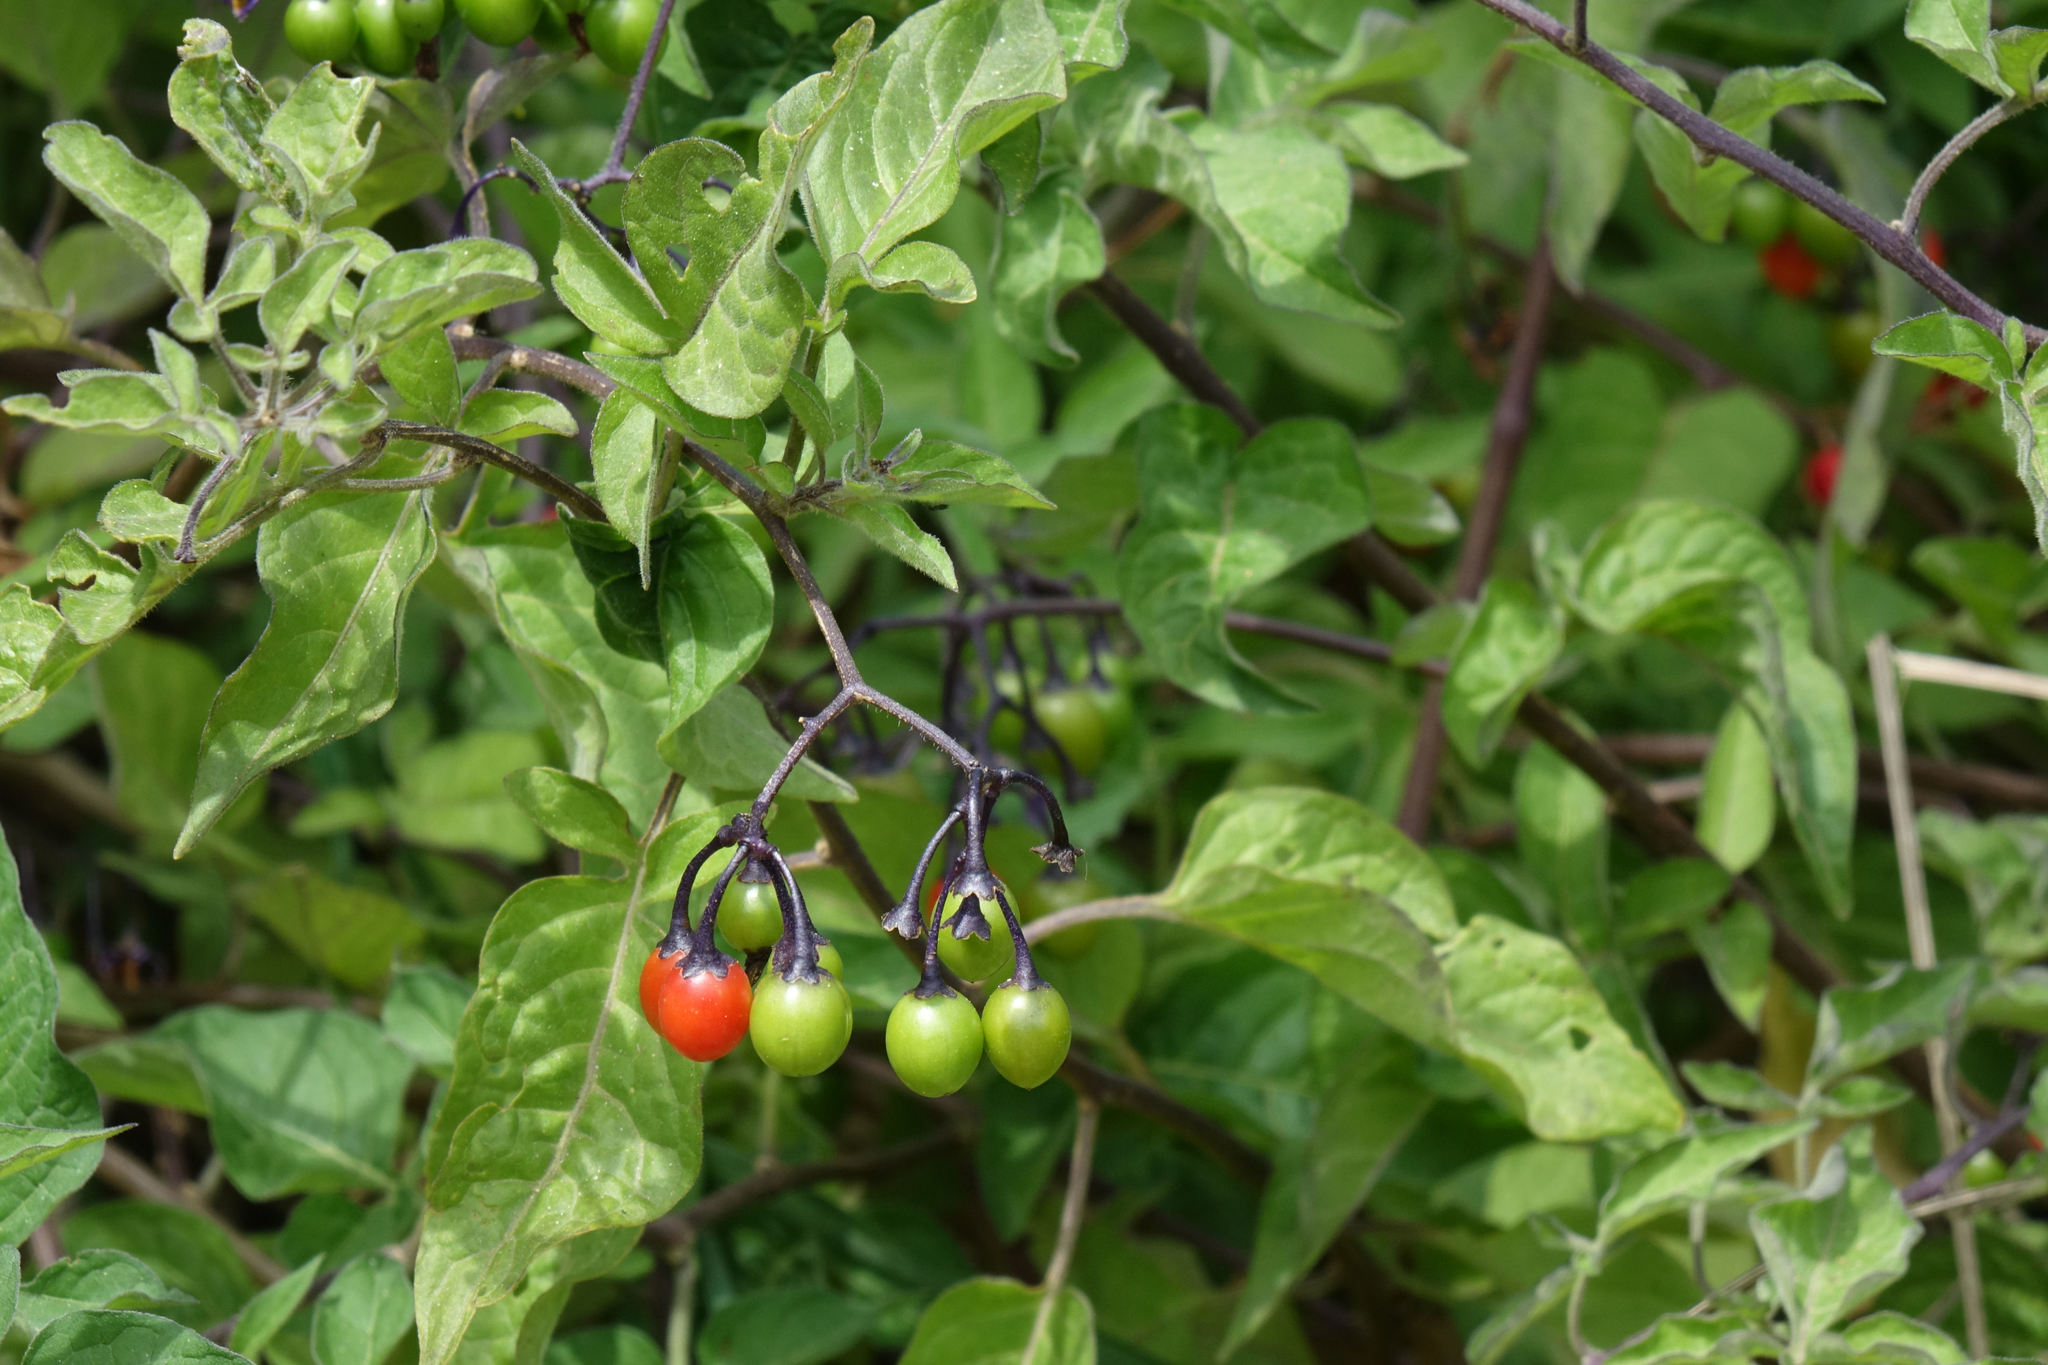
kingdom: Plantae
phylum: Tracheophyta
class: Magnoliopsida
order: Solanales
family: Solanaceae
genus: Solanum
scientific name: Solanum dulcamara
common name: Climbing nightshade
